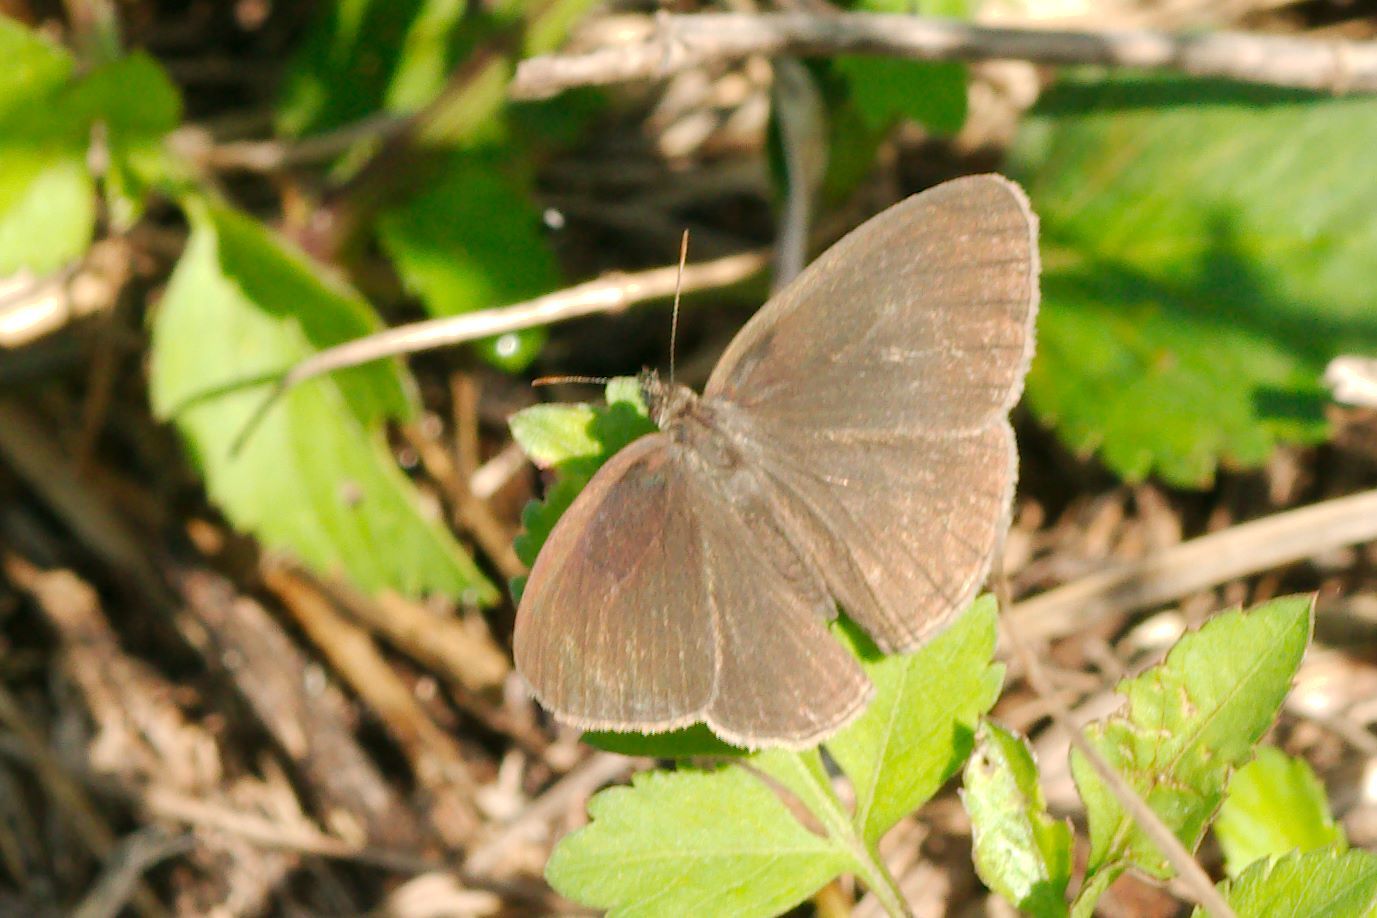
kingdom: Animalia
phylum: Arthropoda
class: Insecta
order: Lepidoptera
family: Nymphalidae
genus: Hermeuptychia
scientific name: Hermeuptychia hermes
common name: Hermes satyr
